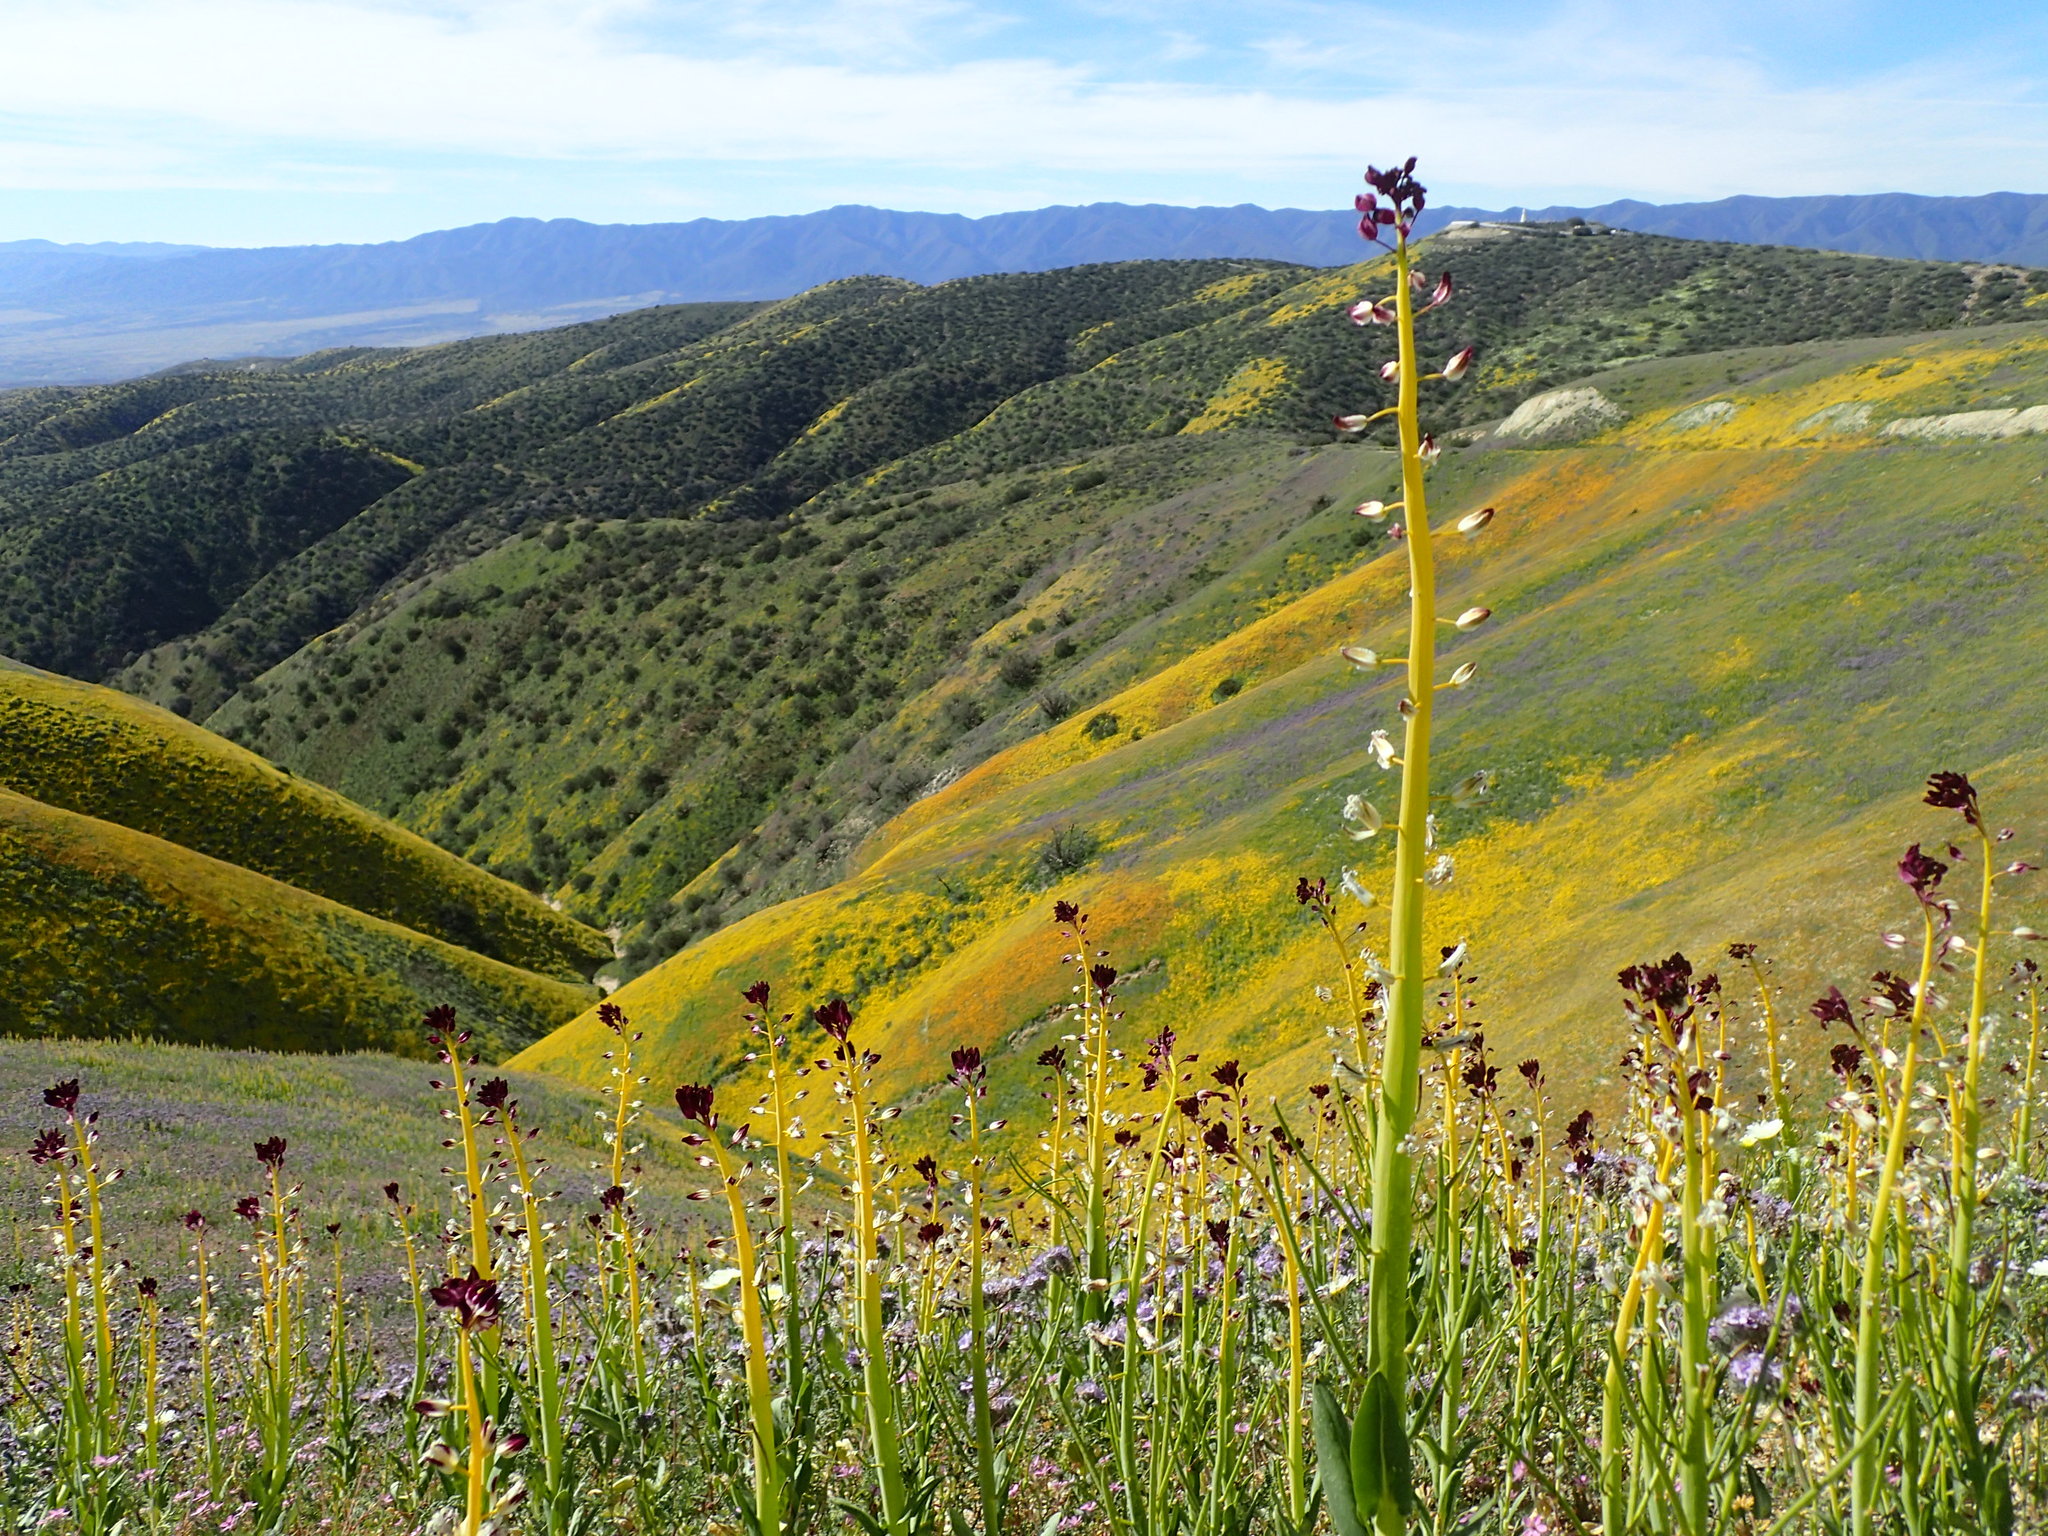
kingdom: Plantae
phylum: Tracheophyta
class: Magnoliopsida
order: Brassicales
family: Brassicaceae
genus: Streptanthus
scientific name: Streptanthus inflatus
